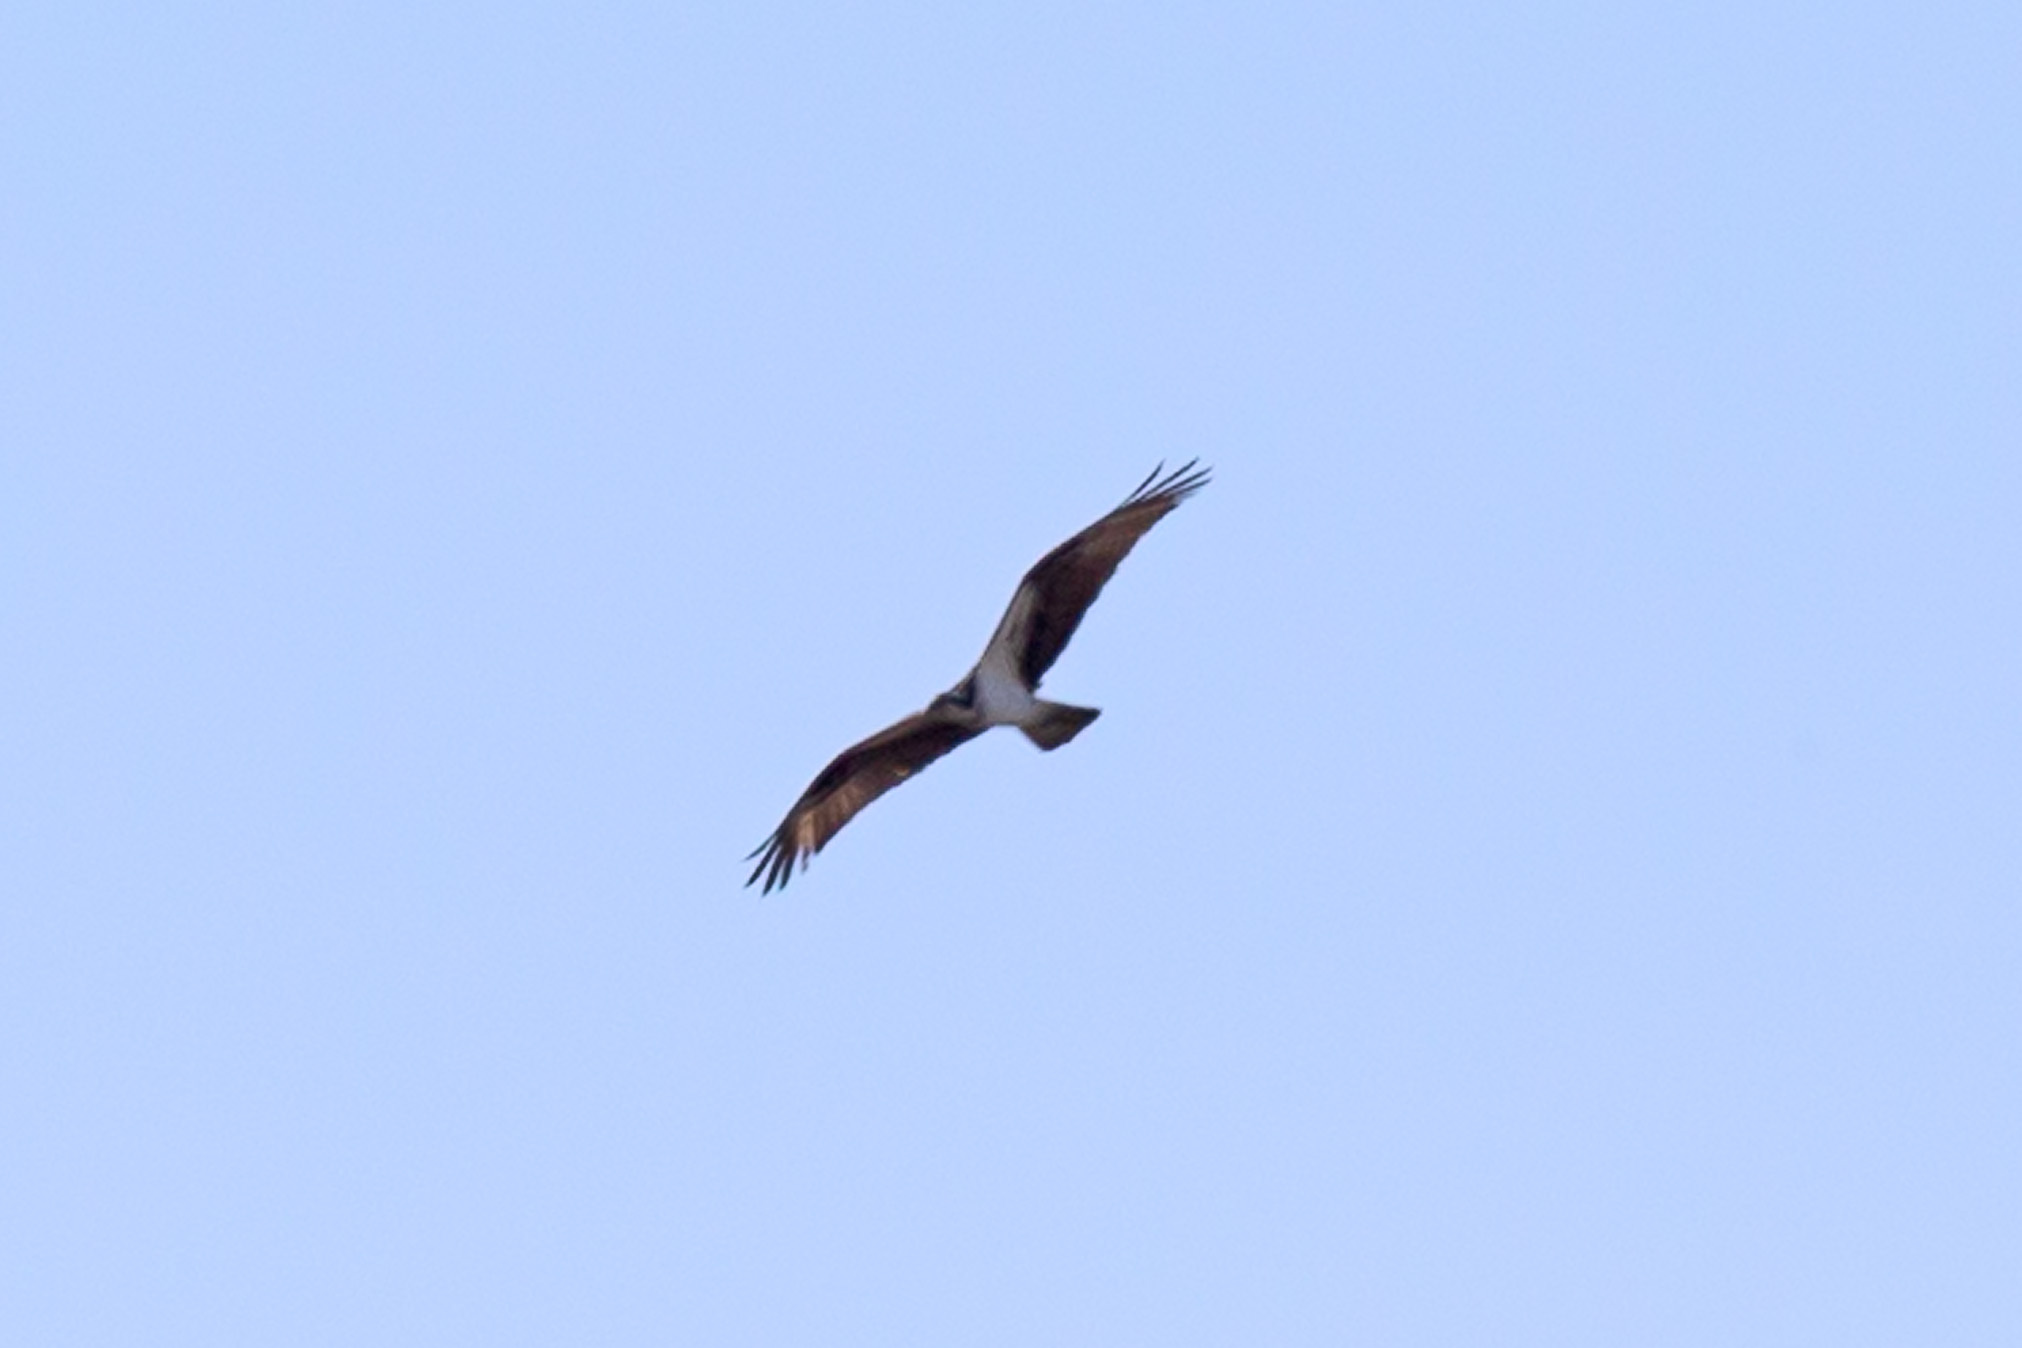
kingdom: Animalia
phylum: Chordata
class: Aves
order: Accipitriformes
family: Pandionidae
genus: Pandion
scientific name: Pandion haliaetus
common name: Osprey
